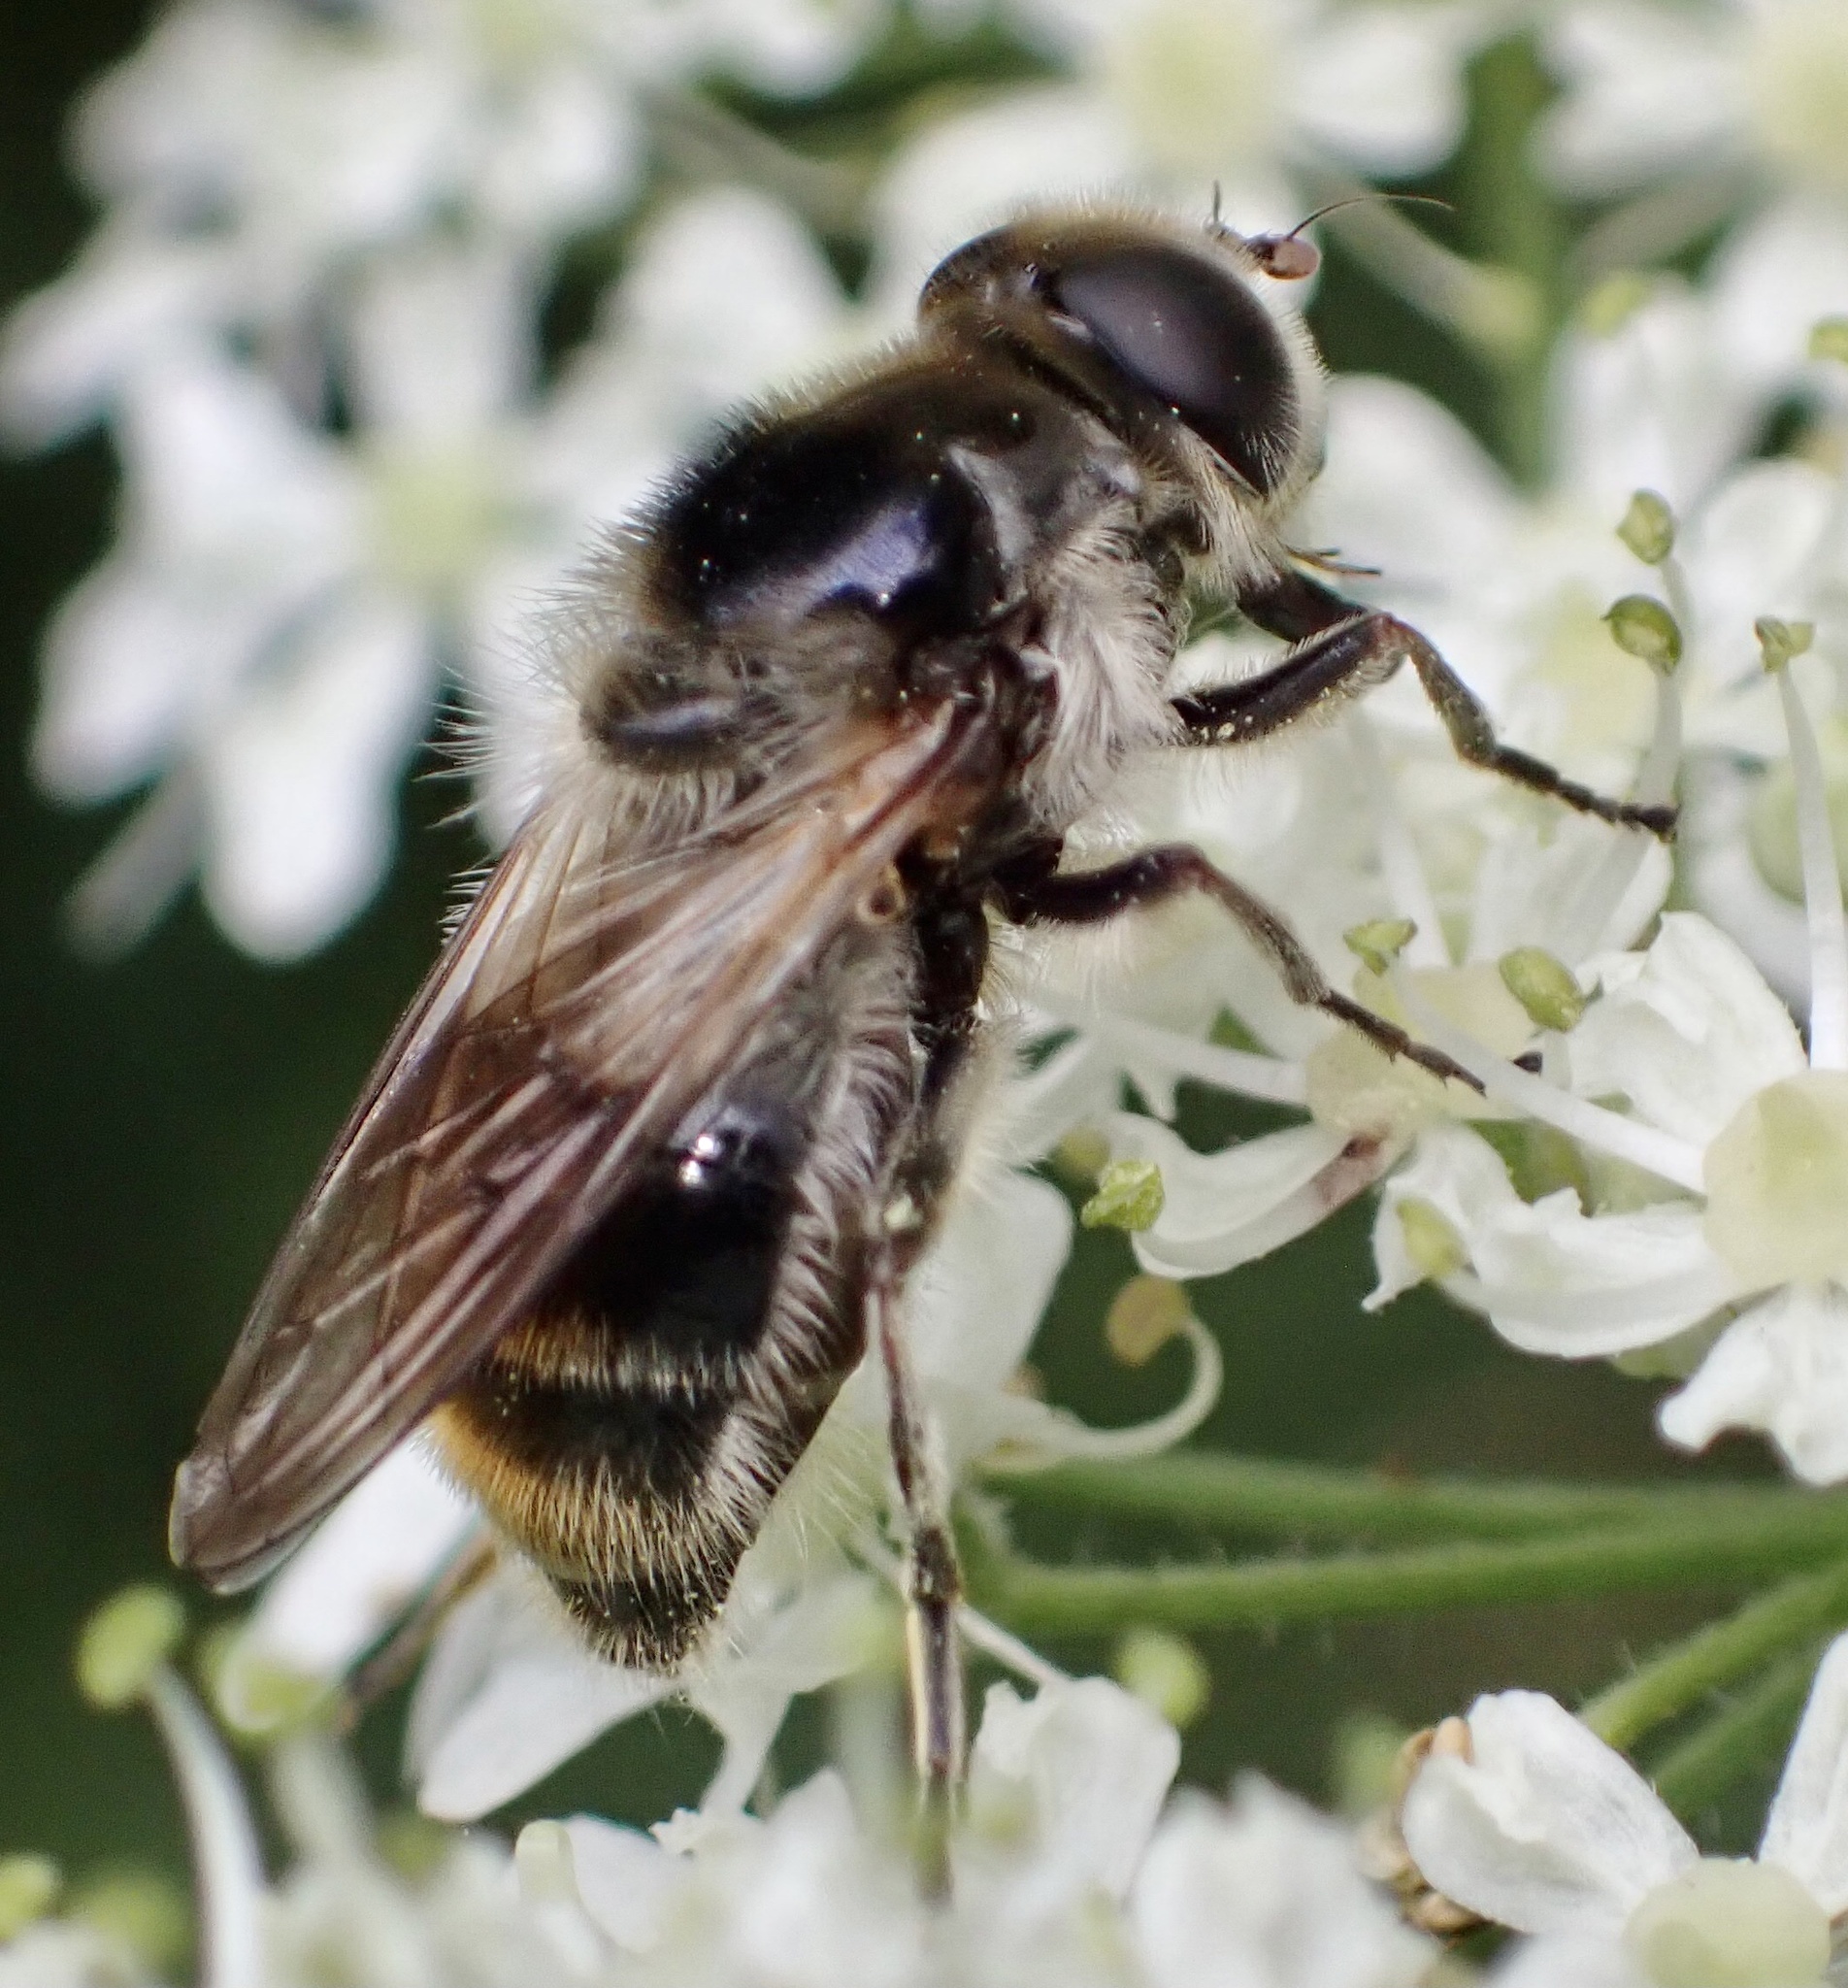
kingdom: Animalia
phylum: Arthropoda
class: Insecta
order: Diptera
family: Syrphidae
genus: Cheilosia
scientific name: Cheilosia illustrata
